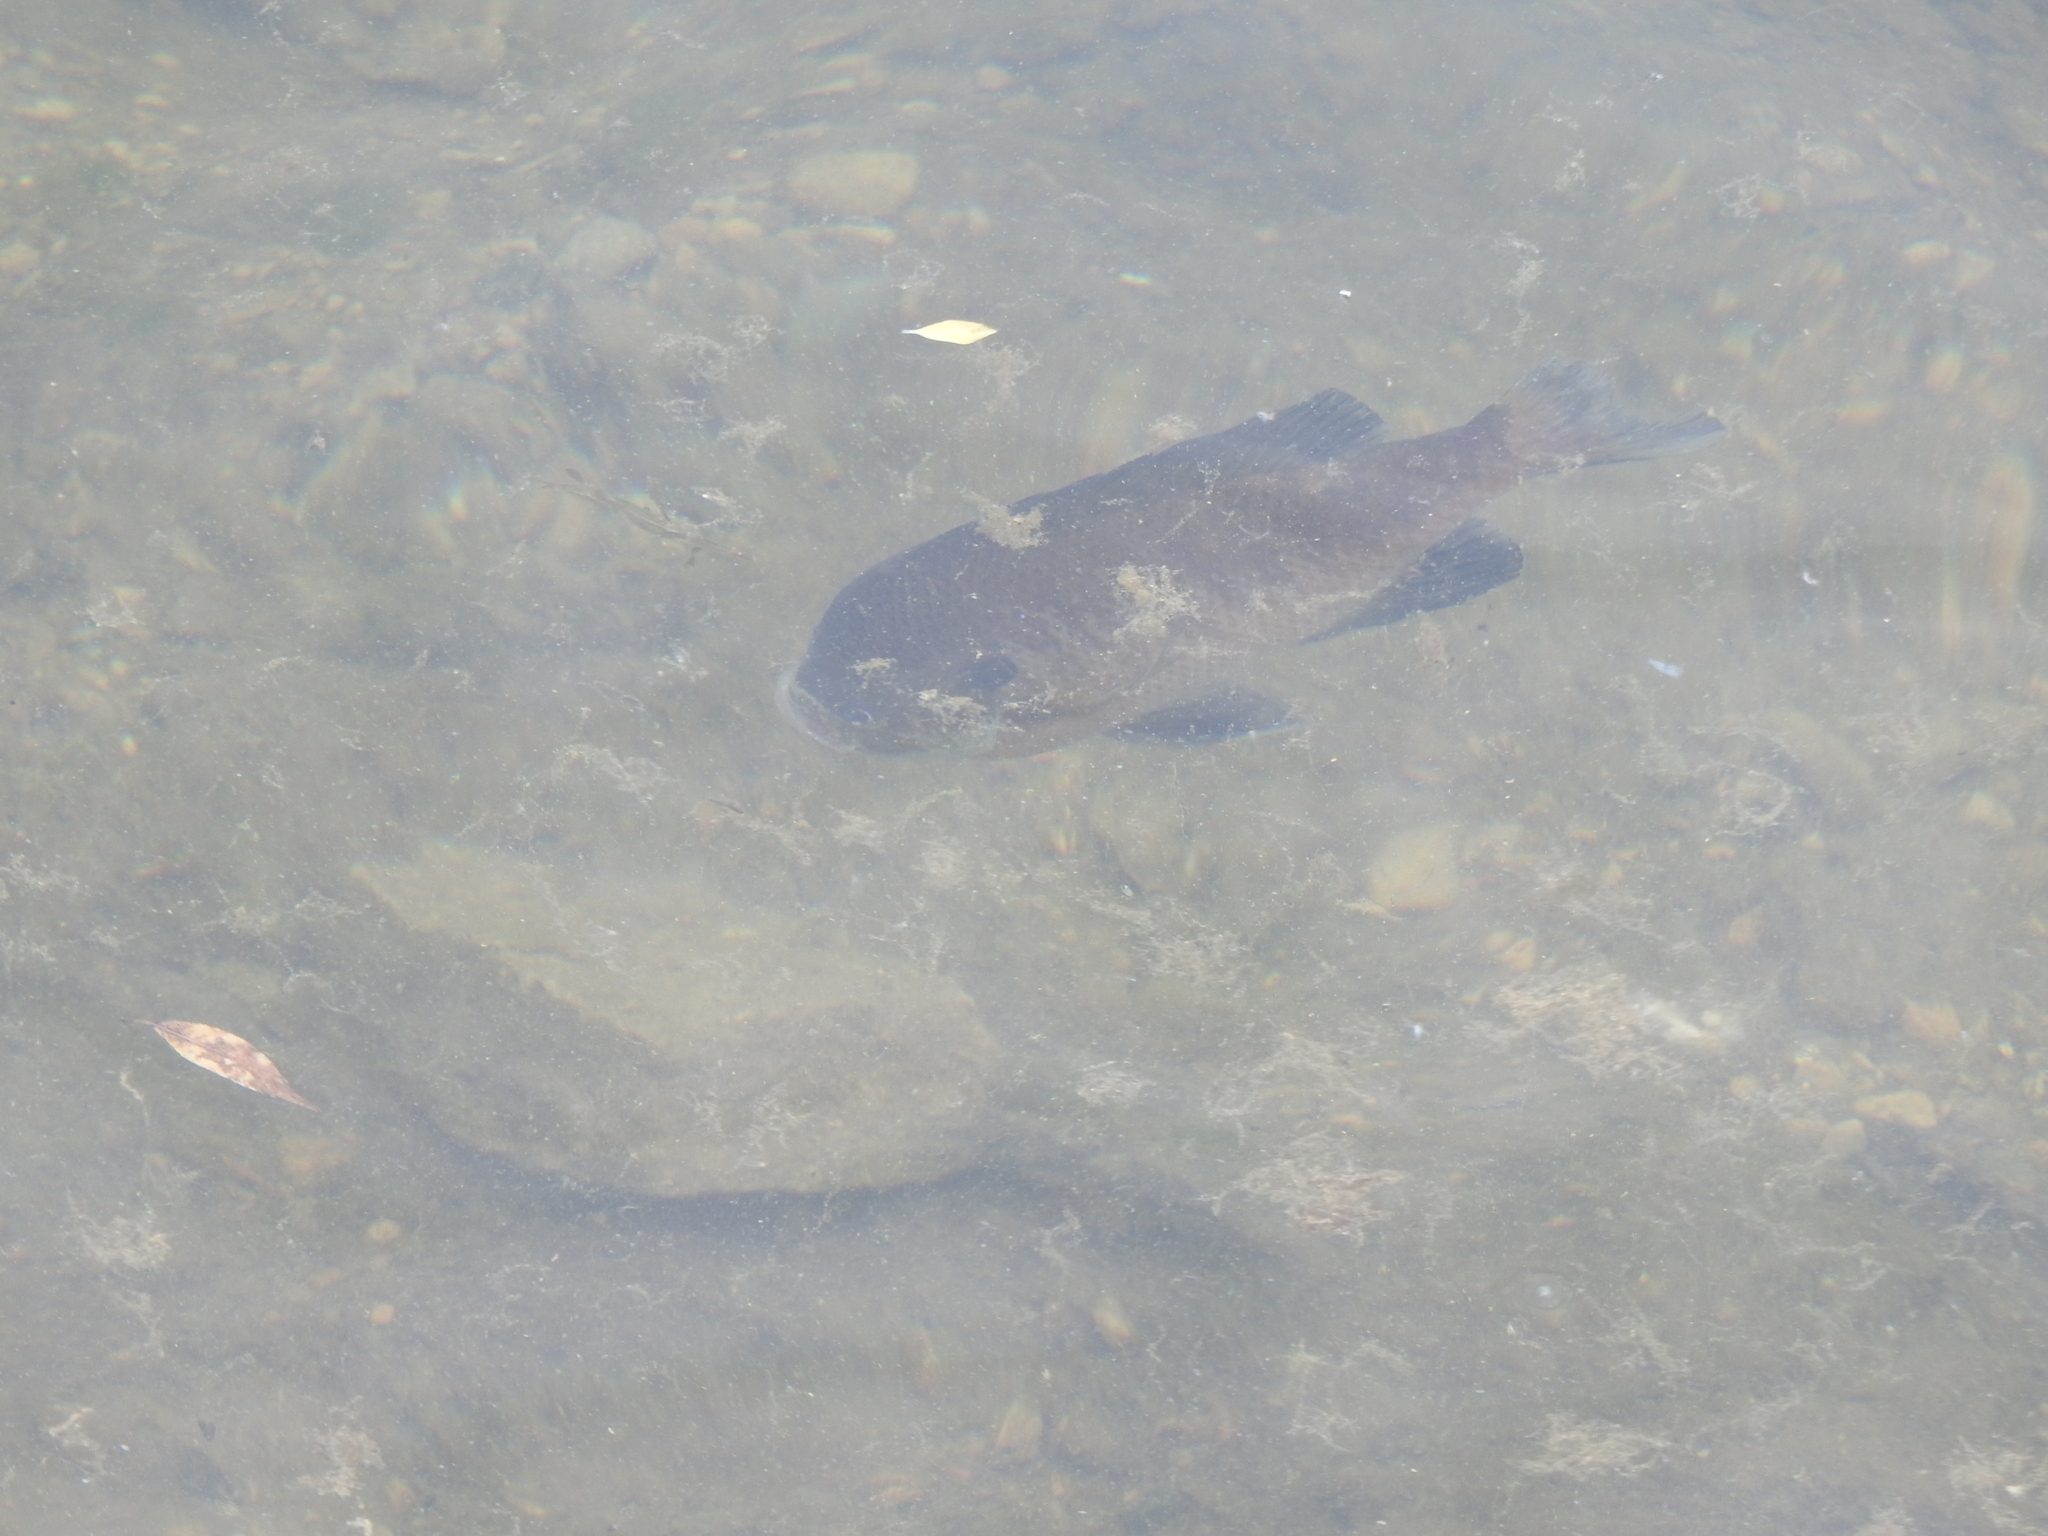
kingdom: Animalia
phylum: Chordata
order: Perciformes
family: Centrarchidae
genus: Lepomis
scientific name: Lepomis macrochirus
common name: Bluegill
